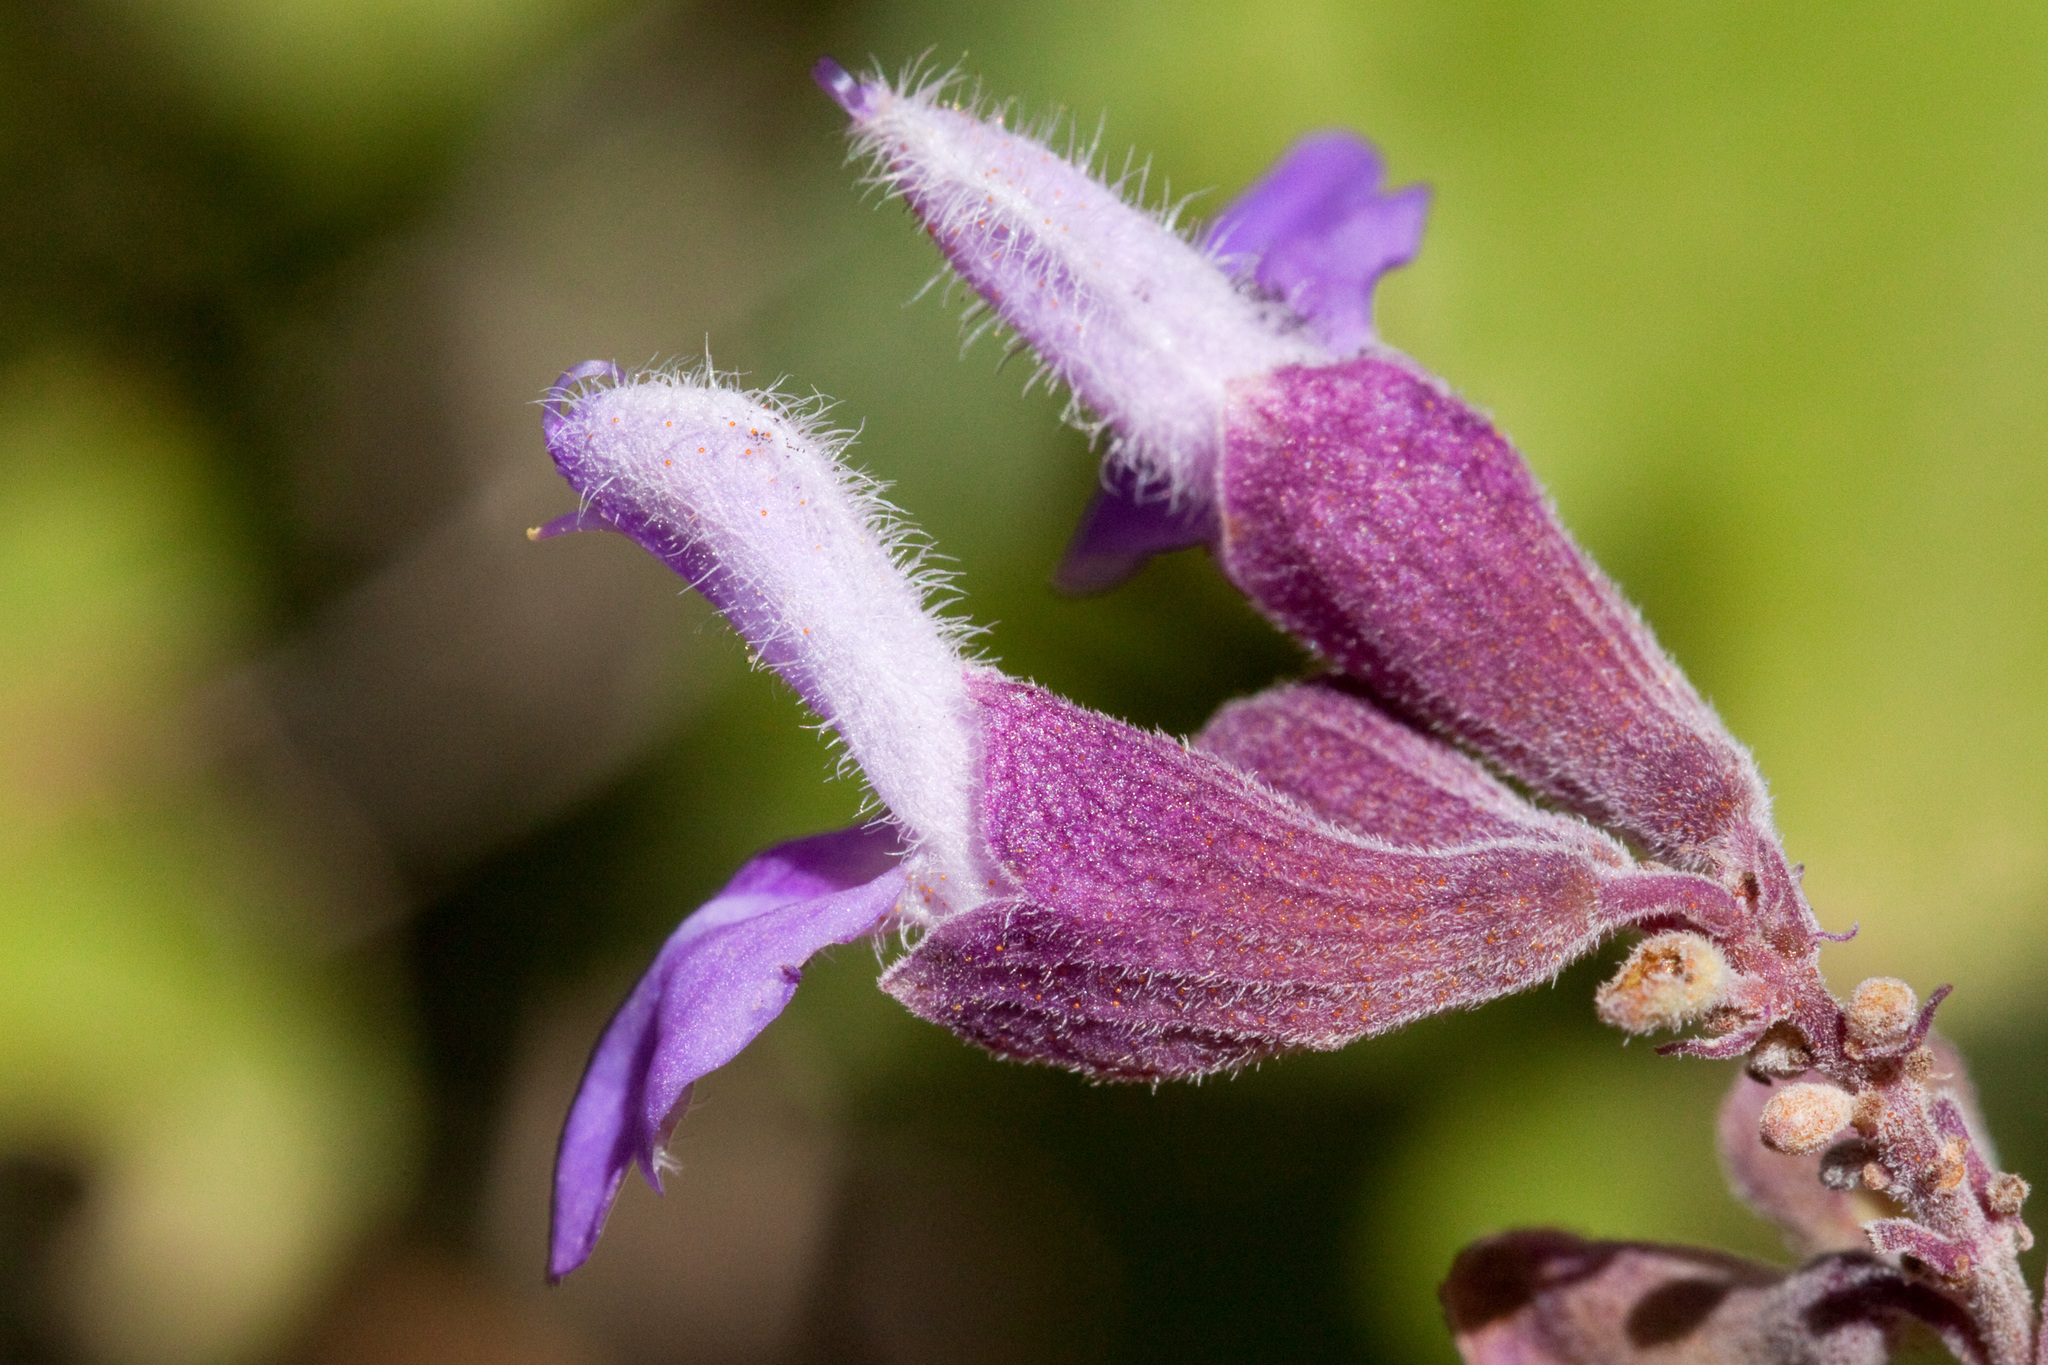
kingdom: Plantae
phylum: Tracheophyta
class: Magnoliopsida
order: Lamiales
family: Lamiaceae
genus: Salvia
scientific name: Salvia pinguifolia
